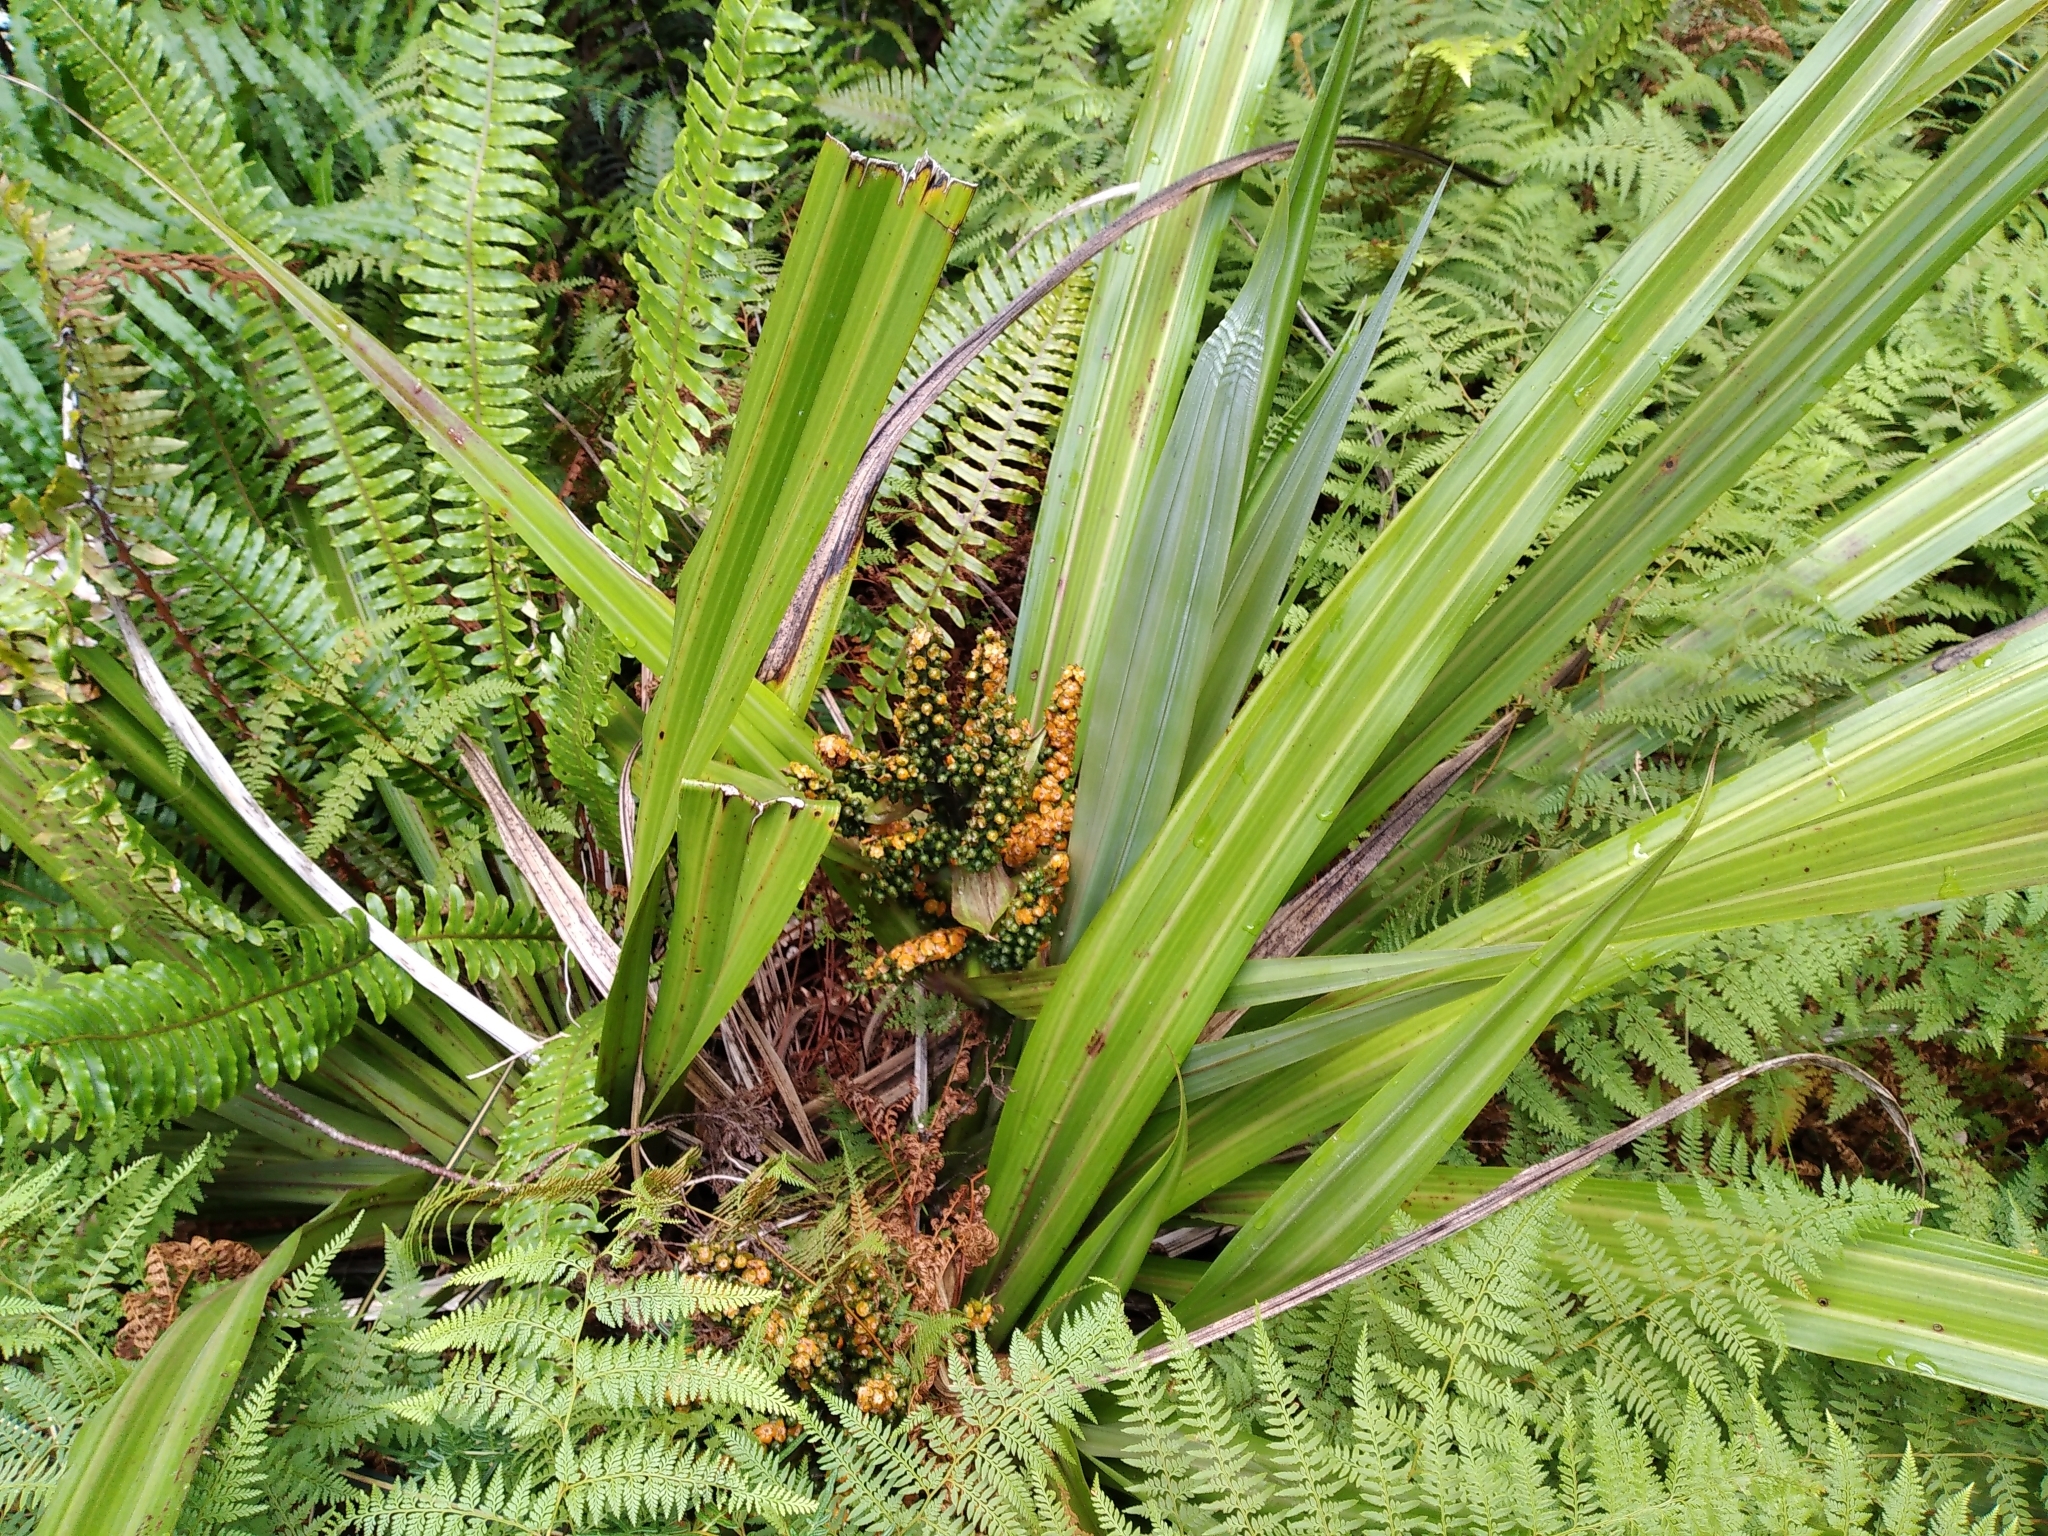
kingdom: Plantae
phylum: Tracheophyta
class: Liliopsida
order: Asparagales
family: Asteliaceae
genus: Astelia
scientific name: Astelia fragrans
